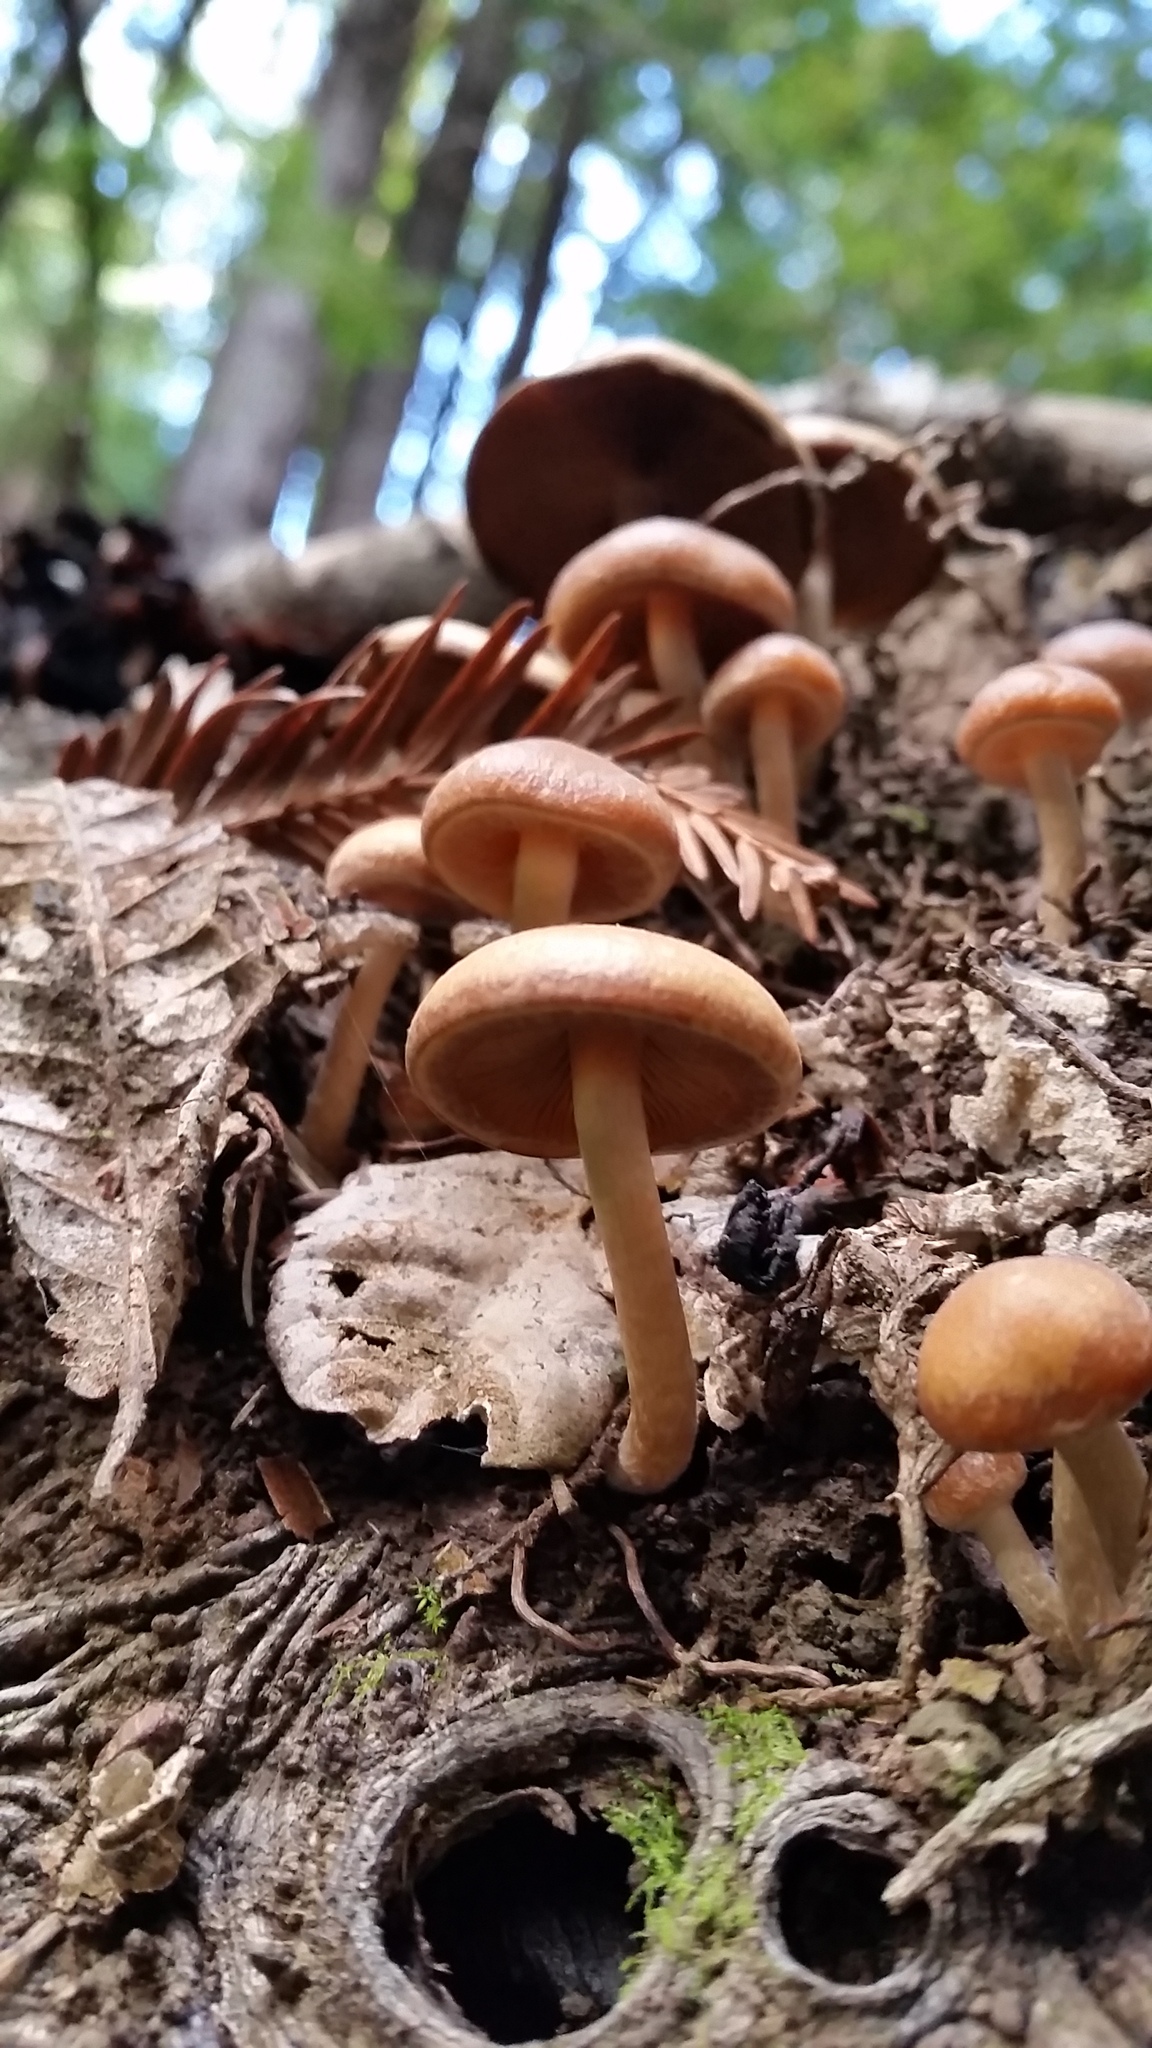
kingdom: Fungi
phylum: Basidiomycota
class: Agaricomycetes
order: Agaricales
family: Psathyrellaceae
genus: Psathyrella
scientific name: Psathyrella piluliformis
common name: Common stump brittlestem
